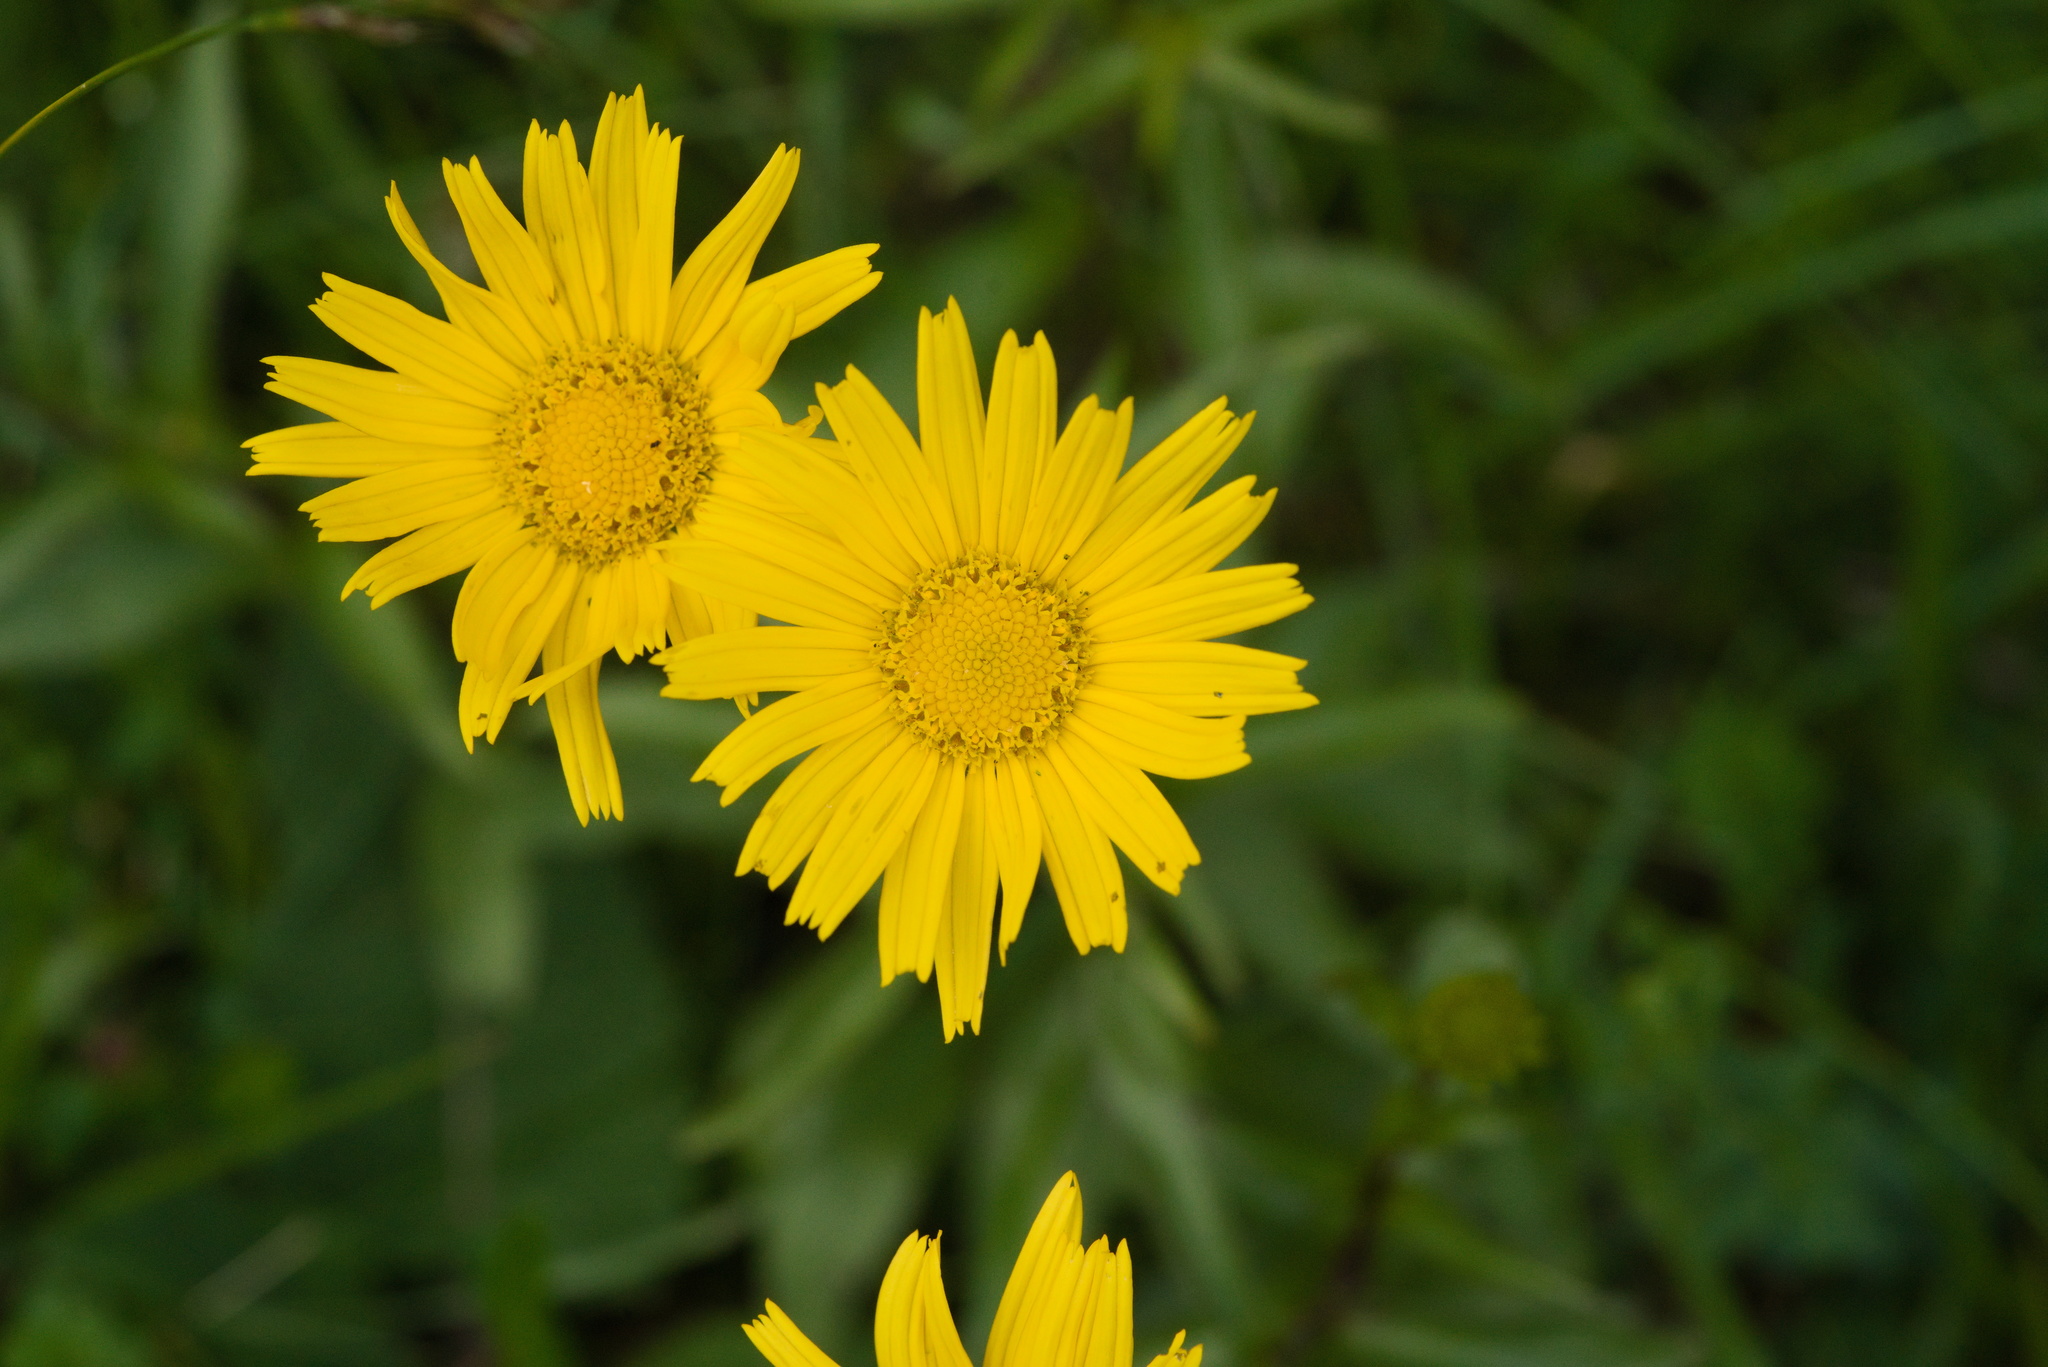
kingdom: Plantae
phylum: Tracheophyta
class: Magnoliopsida
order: Asterales
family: Asteraceae
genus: Buphthalmum
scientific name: Buphthalmum salicifolium
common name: Willow-leaved yellow-oxeye
